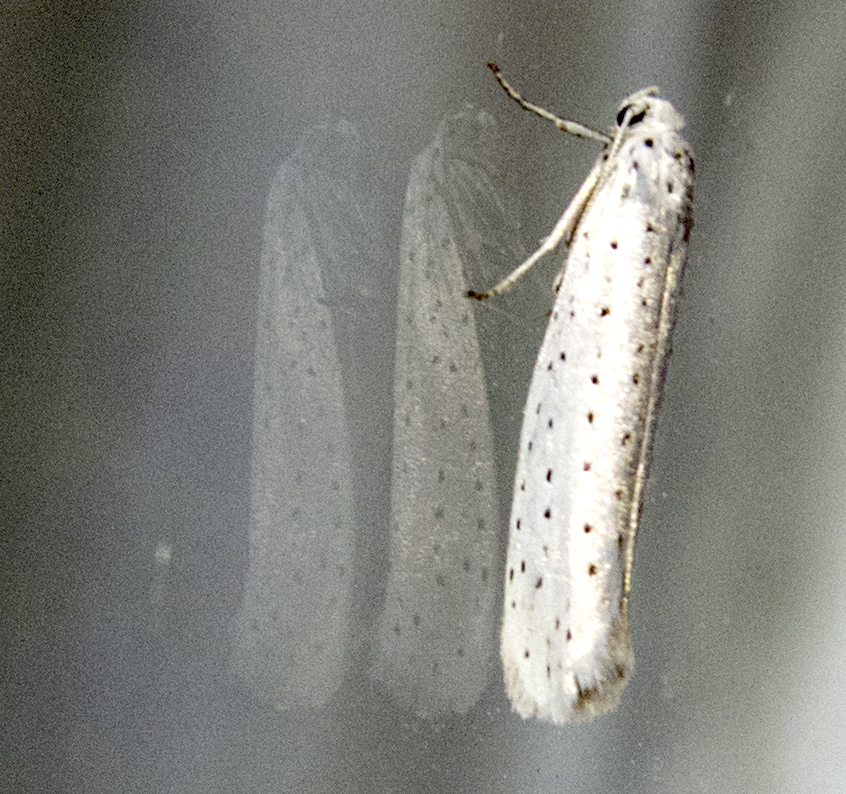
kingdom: Animalia
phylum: Arthropoda
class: Insecta
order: Lepidoptera
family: Yponomeutidae
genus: Yponomeuta
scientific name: Yponomeuta evonymella
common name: Bird-cherry ermine
